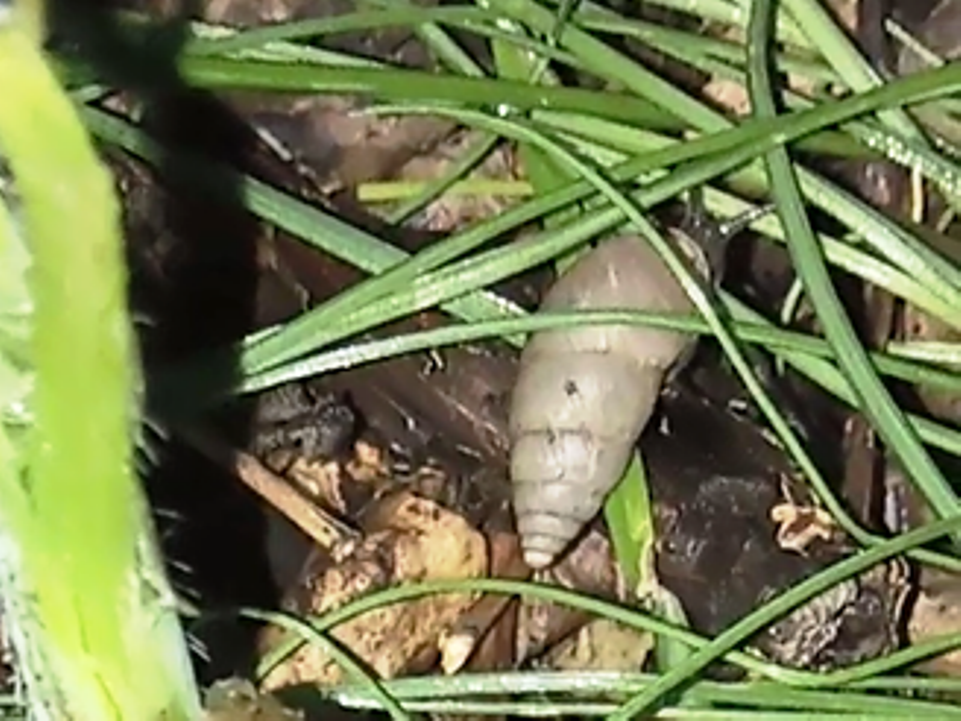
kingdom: Animalia
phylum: Mollusca
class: Gastropoda
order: Stylommatophora
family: Enidae
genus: Chondrula
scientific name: Chondrula tridens
